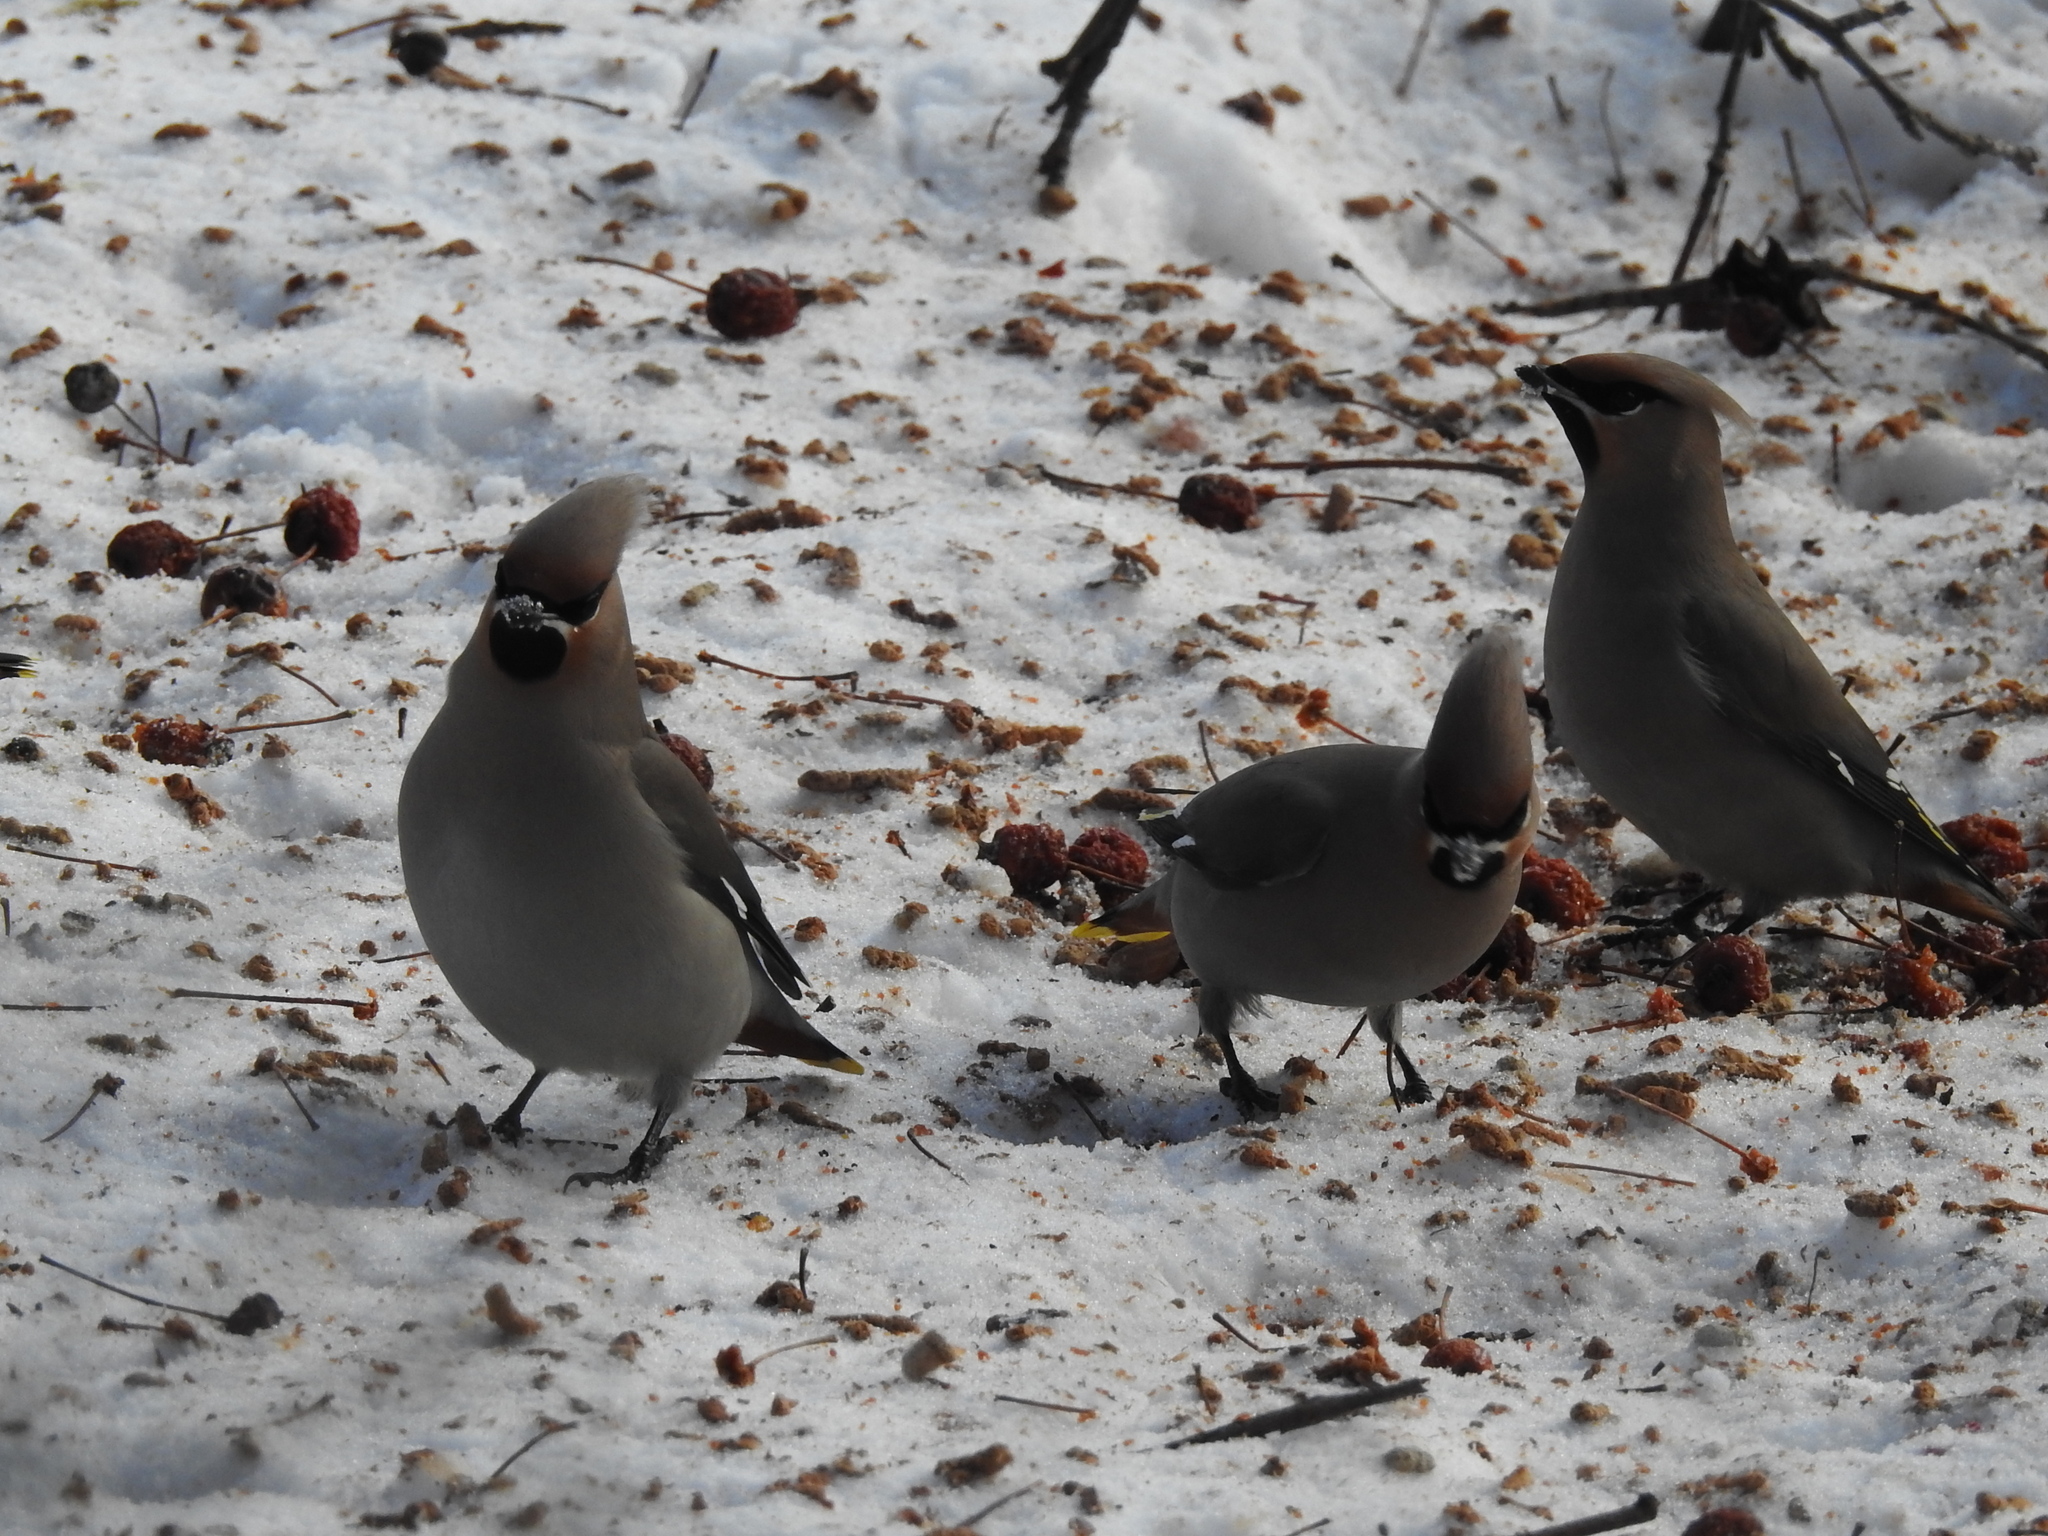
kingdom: Animalia
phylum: Chordata
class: Aves
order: Passeriformes
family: Bombycillidae
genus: Bombycilla
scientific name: Bombycilla garrulus
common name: Bohemian waxwing
